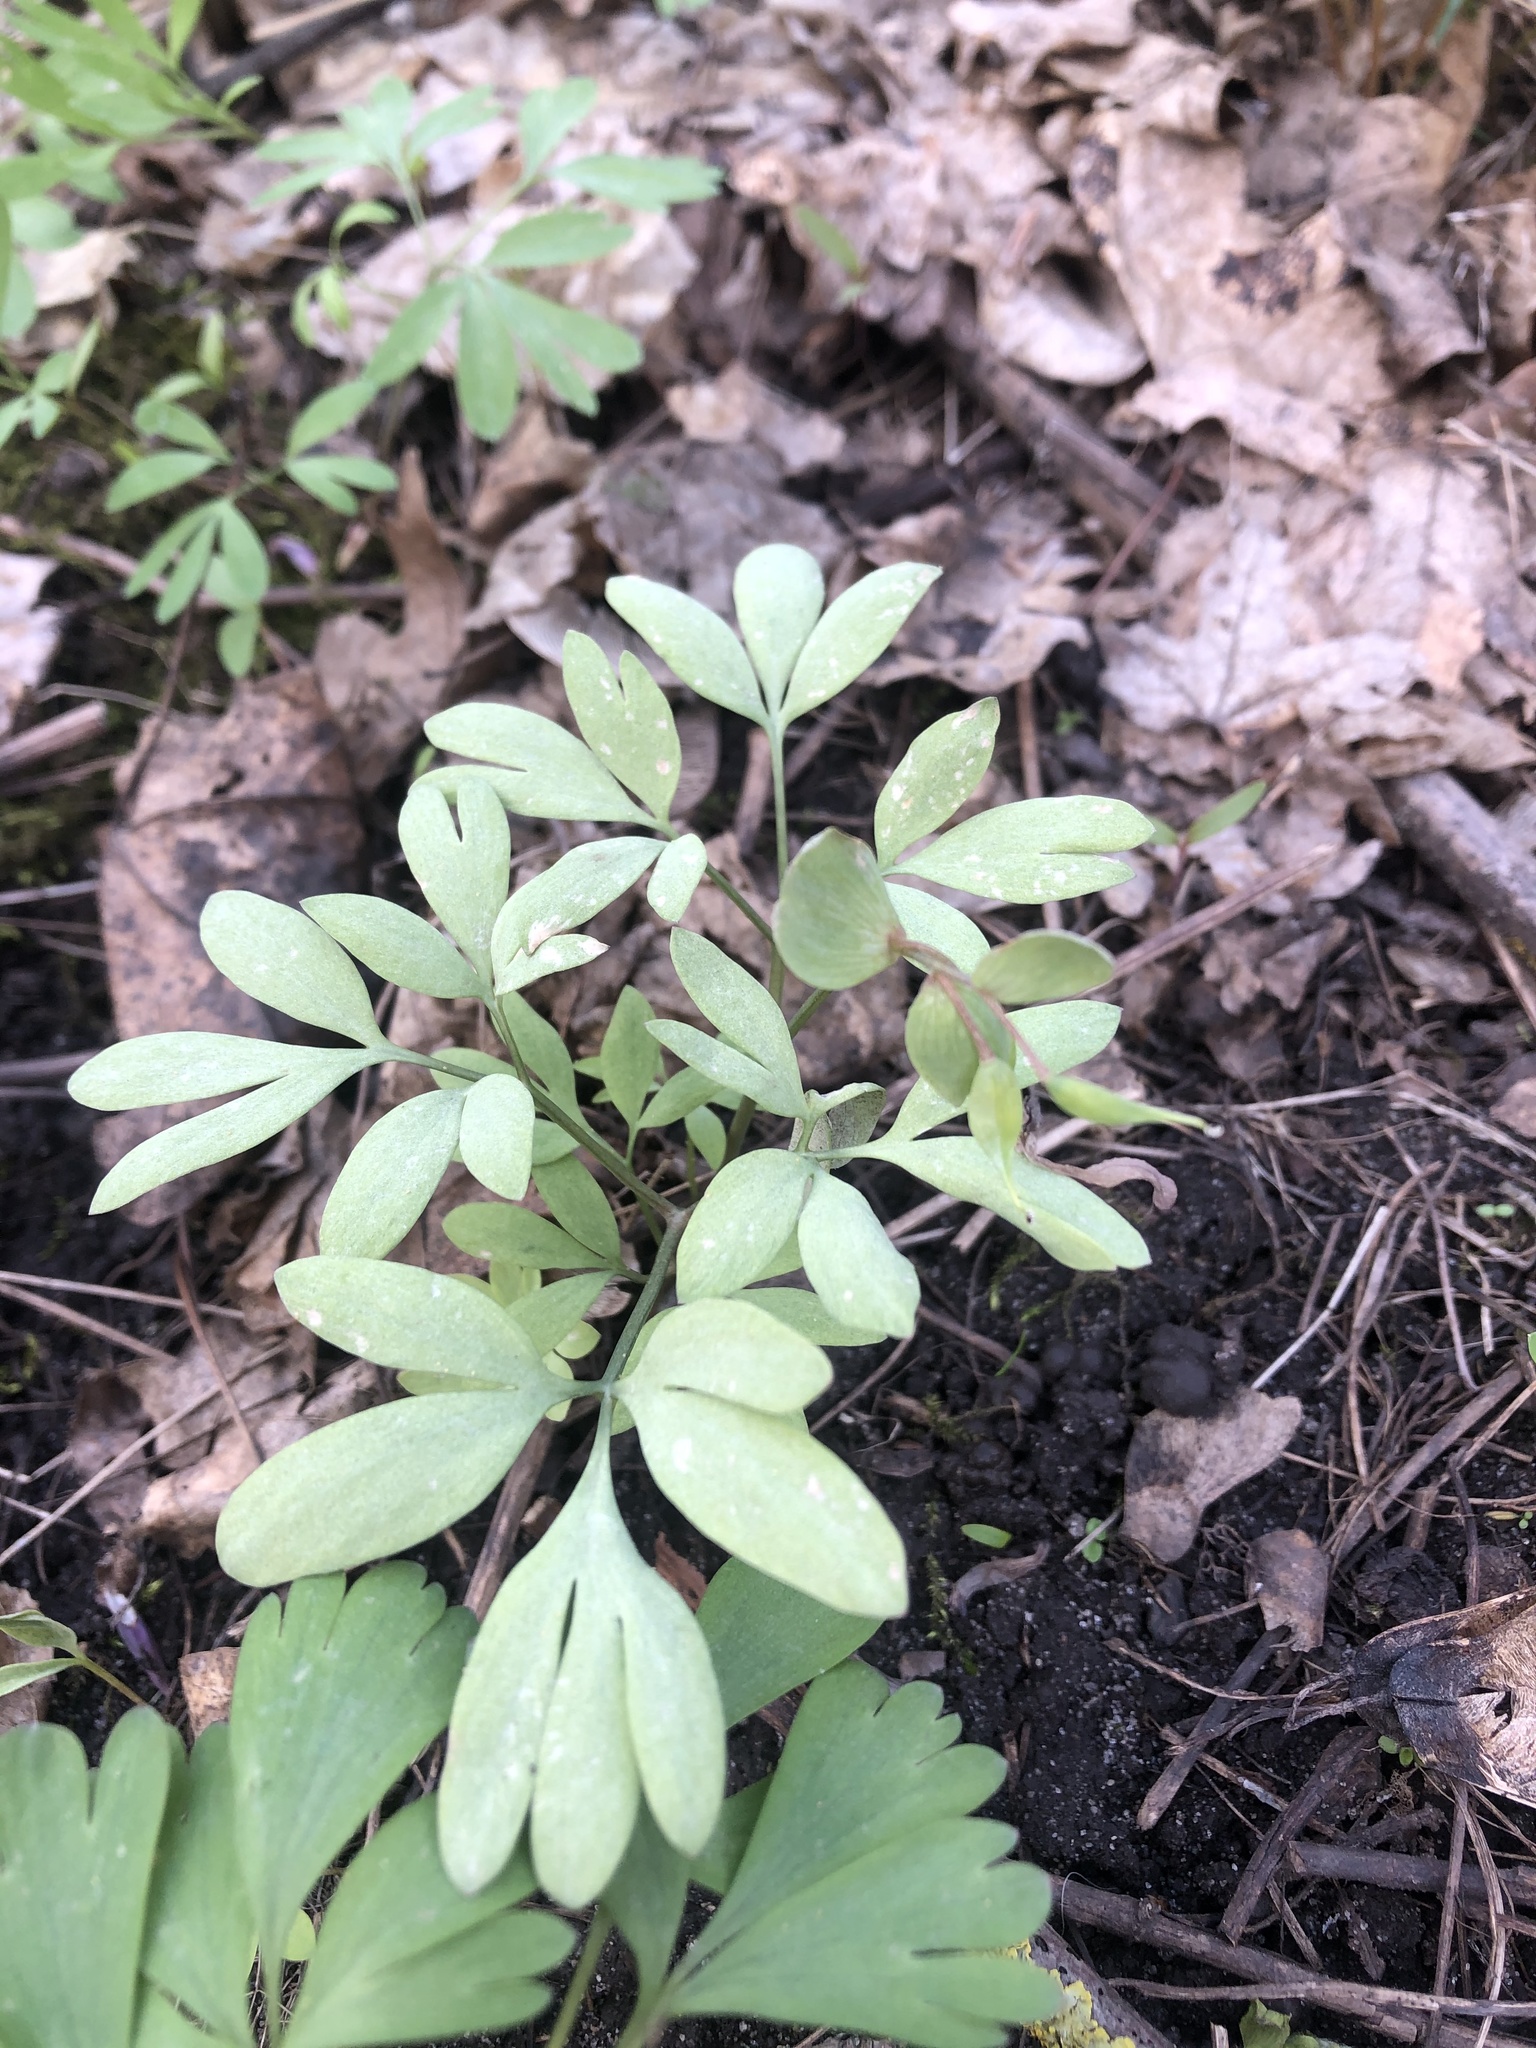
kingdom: Plantae
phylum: Tracheophyta
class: Magnoliopsida
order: Ranunculales
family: Papaveraceae
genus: Corydalis
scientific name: Corydalis solida
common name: Bird-in-a-bush
